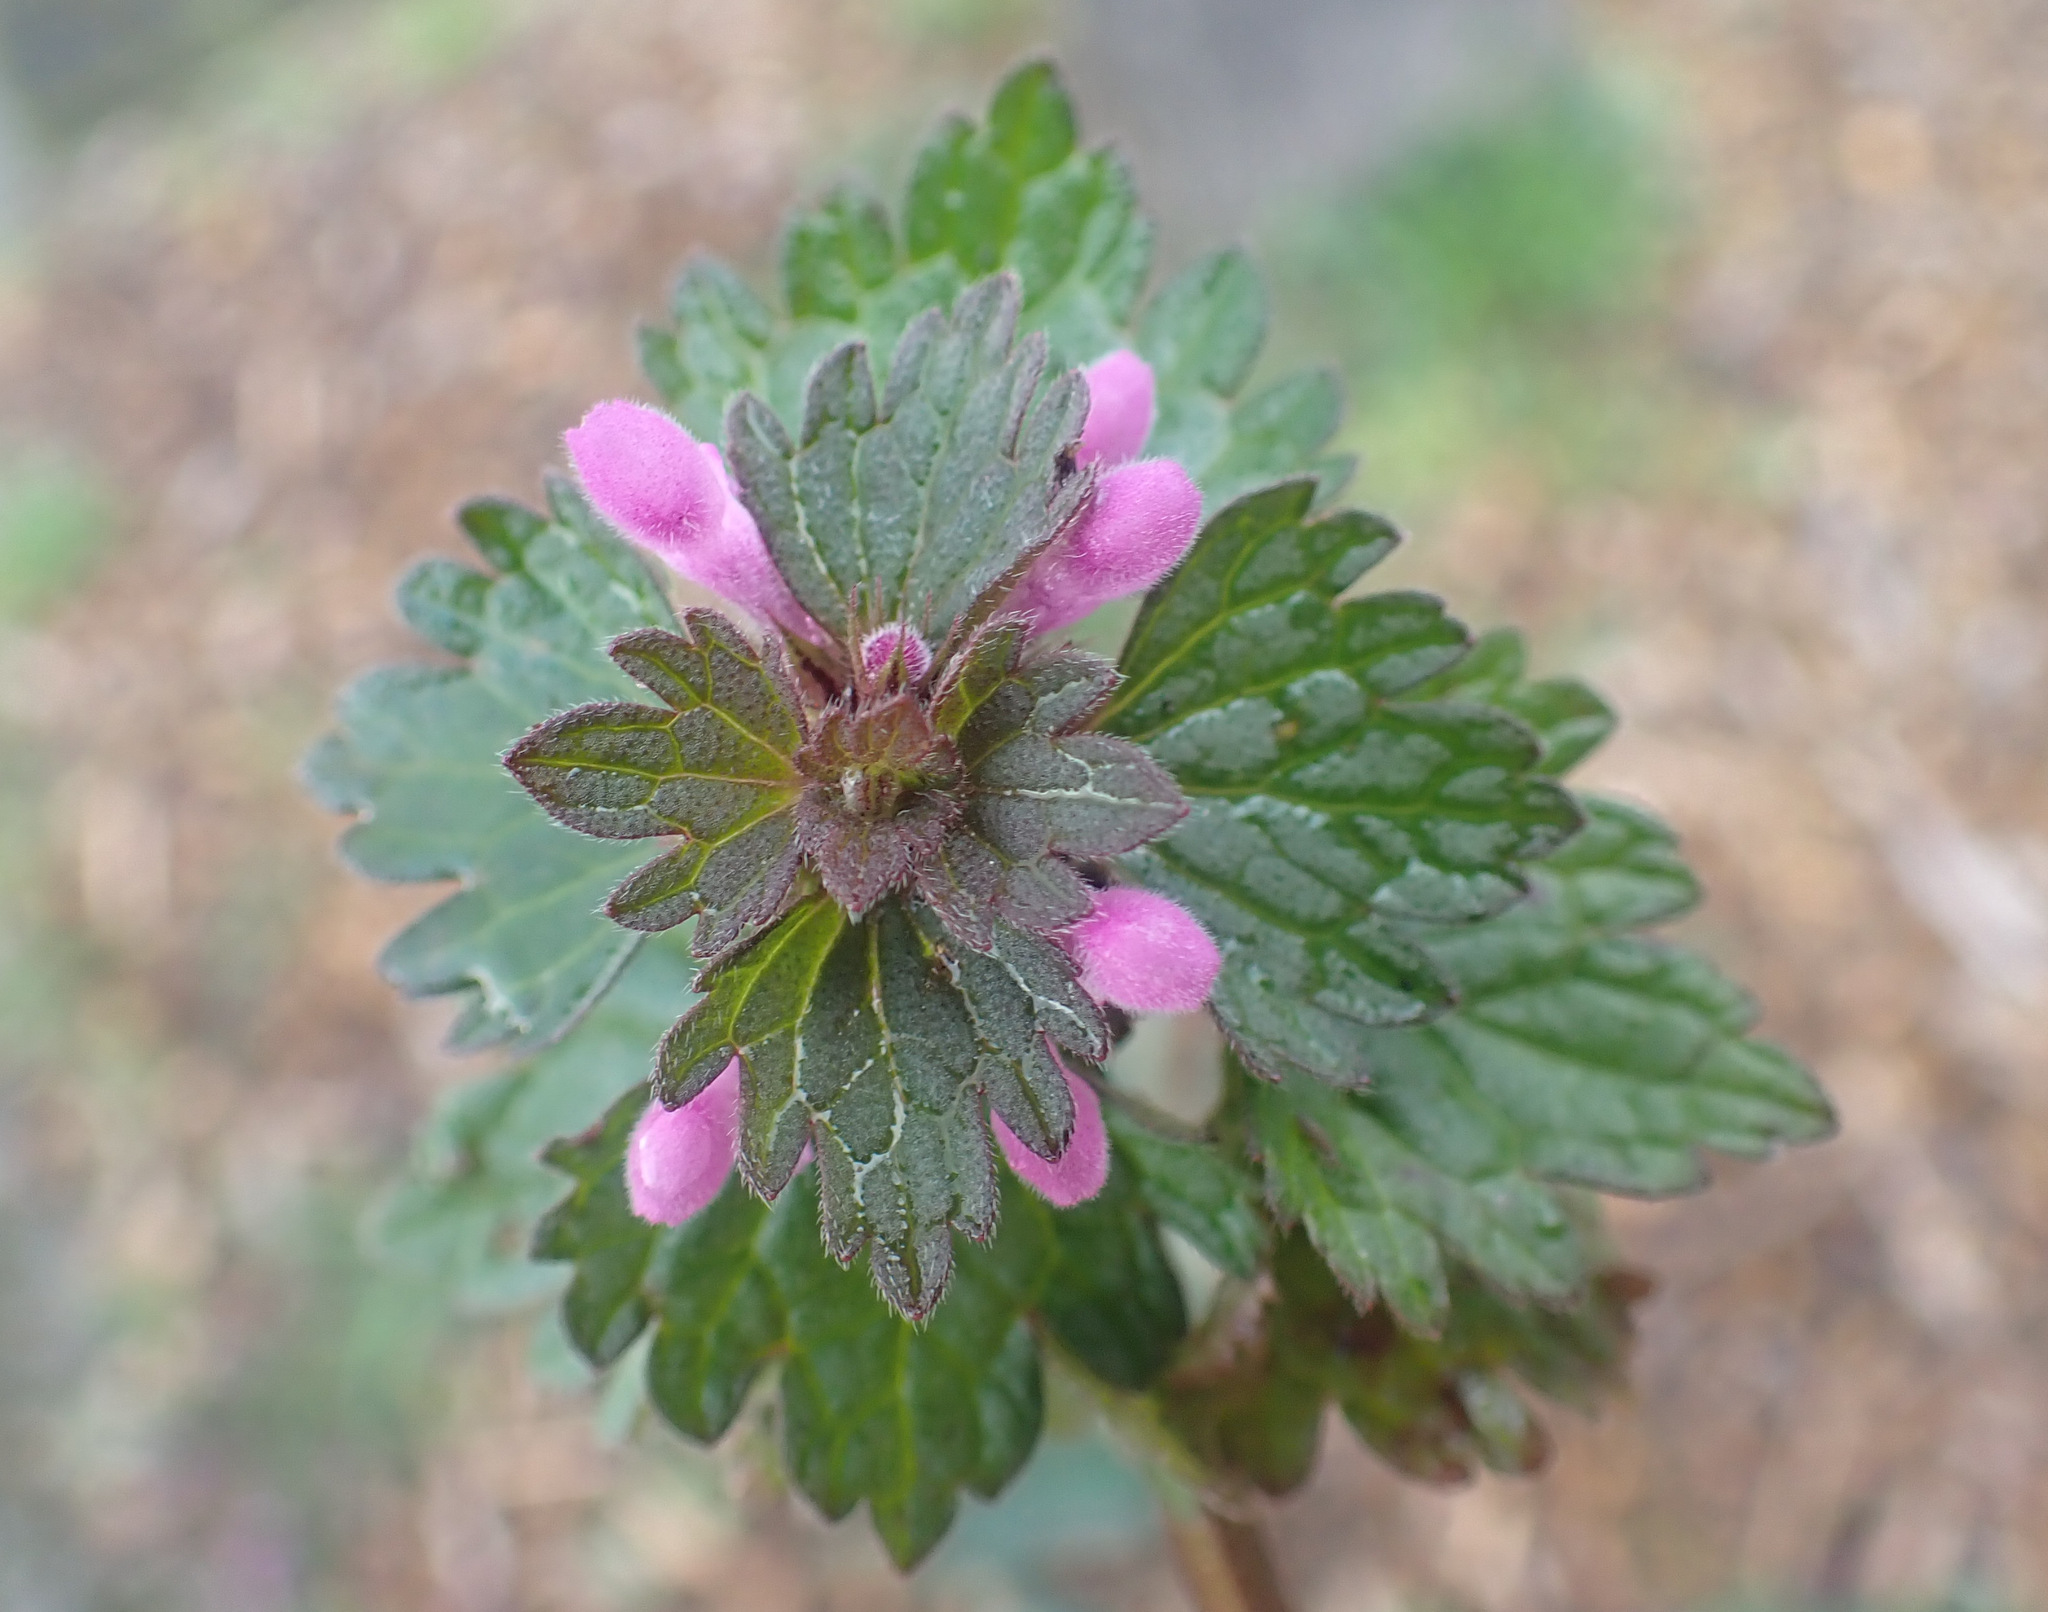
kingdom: Plantae
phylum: Tracheophyta
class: Magnoliopsida
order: Lamiales
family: Lamiaceae
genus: Lamium
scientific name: Lamium hybridum
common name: Cut-leaved dead-nettle
